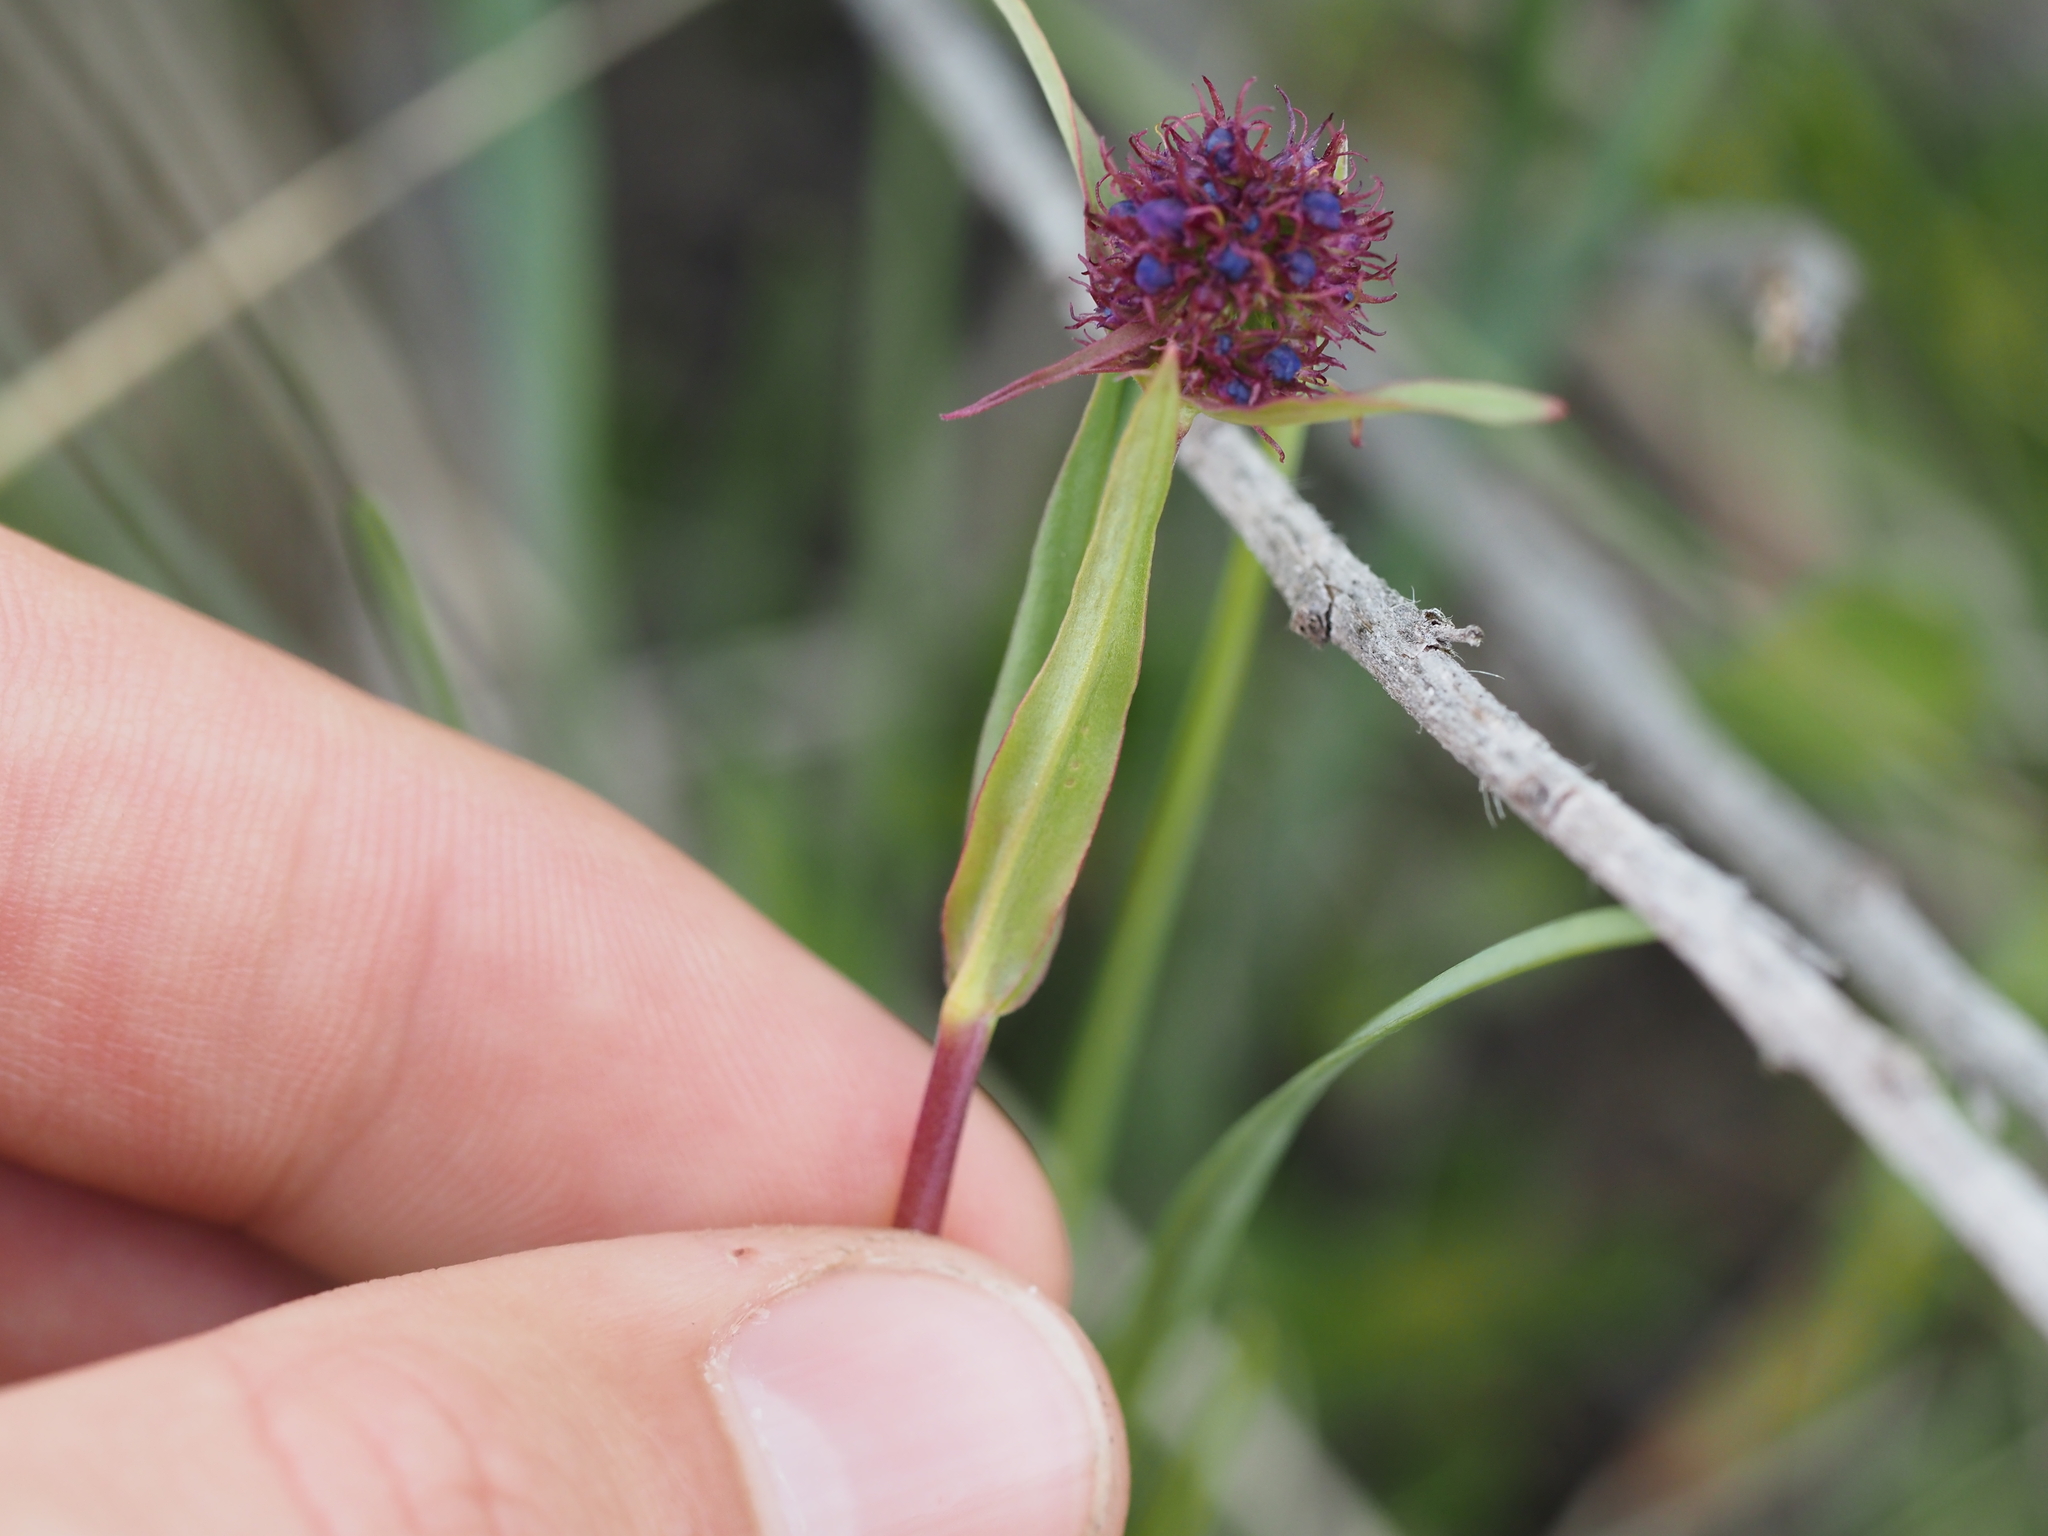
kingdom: Plantae
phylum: Tracheophyta
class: Magnoliopsida
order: Lamiales
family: Plantaginaceae
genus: Penstemon
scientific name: Penstemon procerus
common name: Small-flower penstemon
